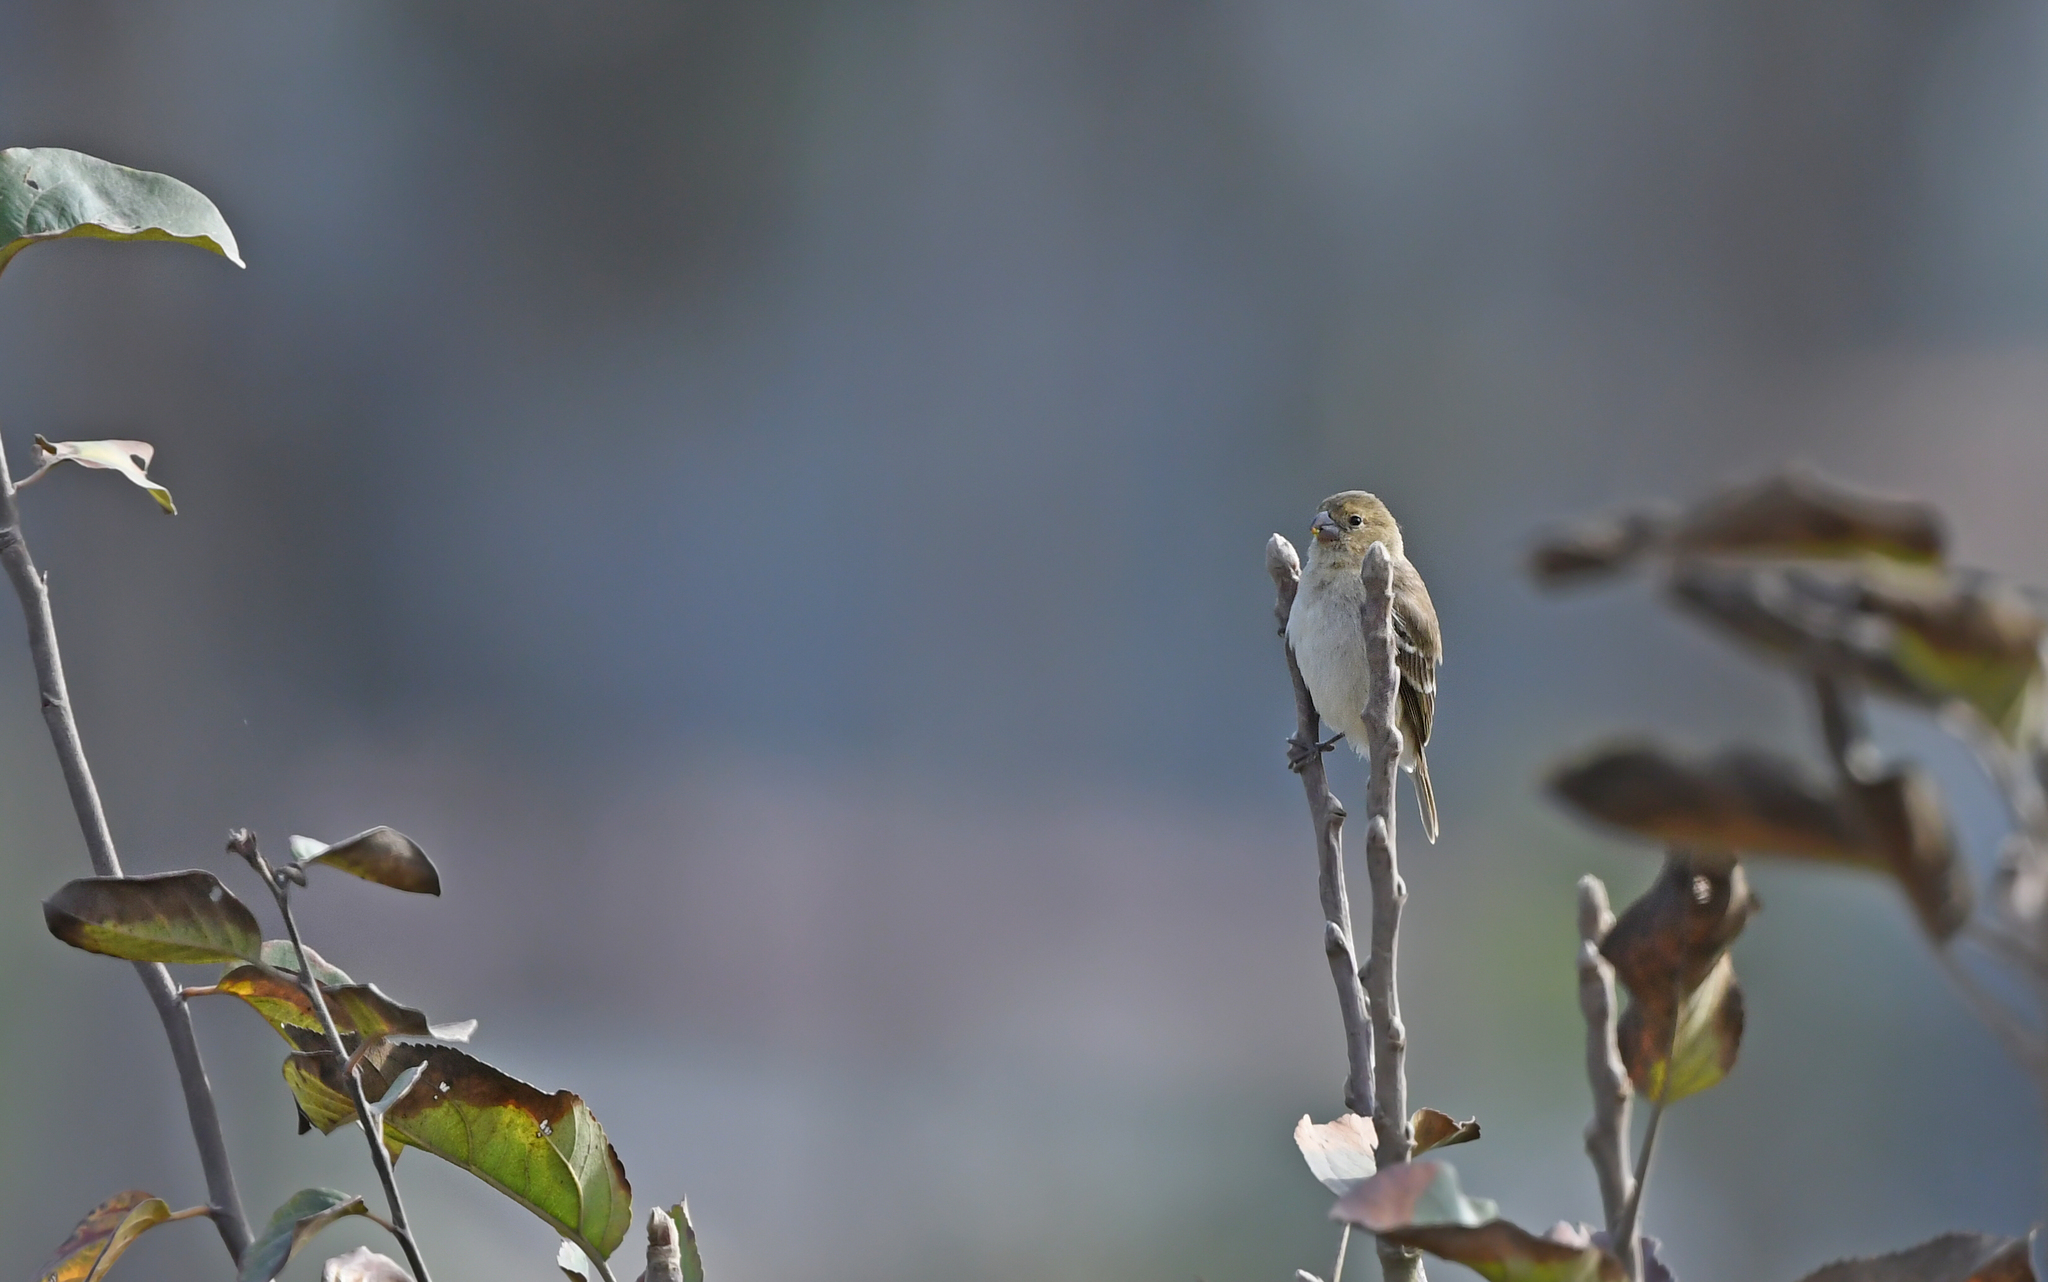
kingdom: Animalia
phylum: Chordata
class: Aves
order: Passeriformes
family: Thraupidae
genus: Sporophila
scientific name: Sporophila simplex
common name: Drab seedeater
